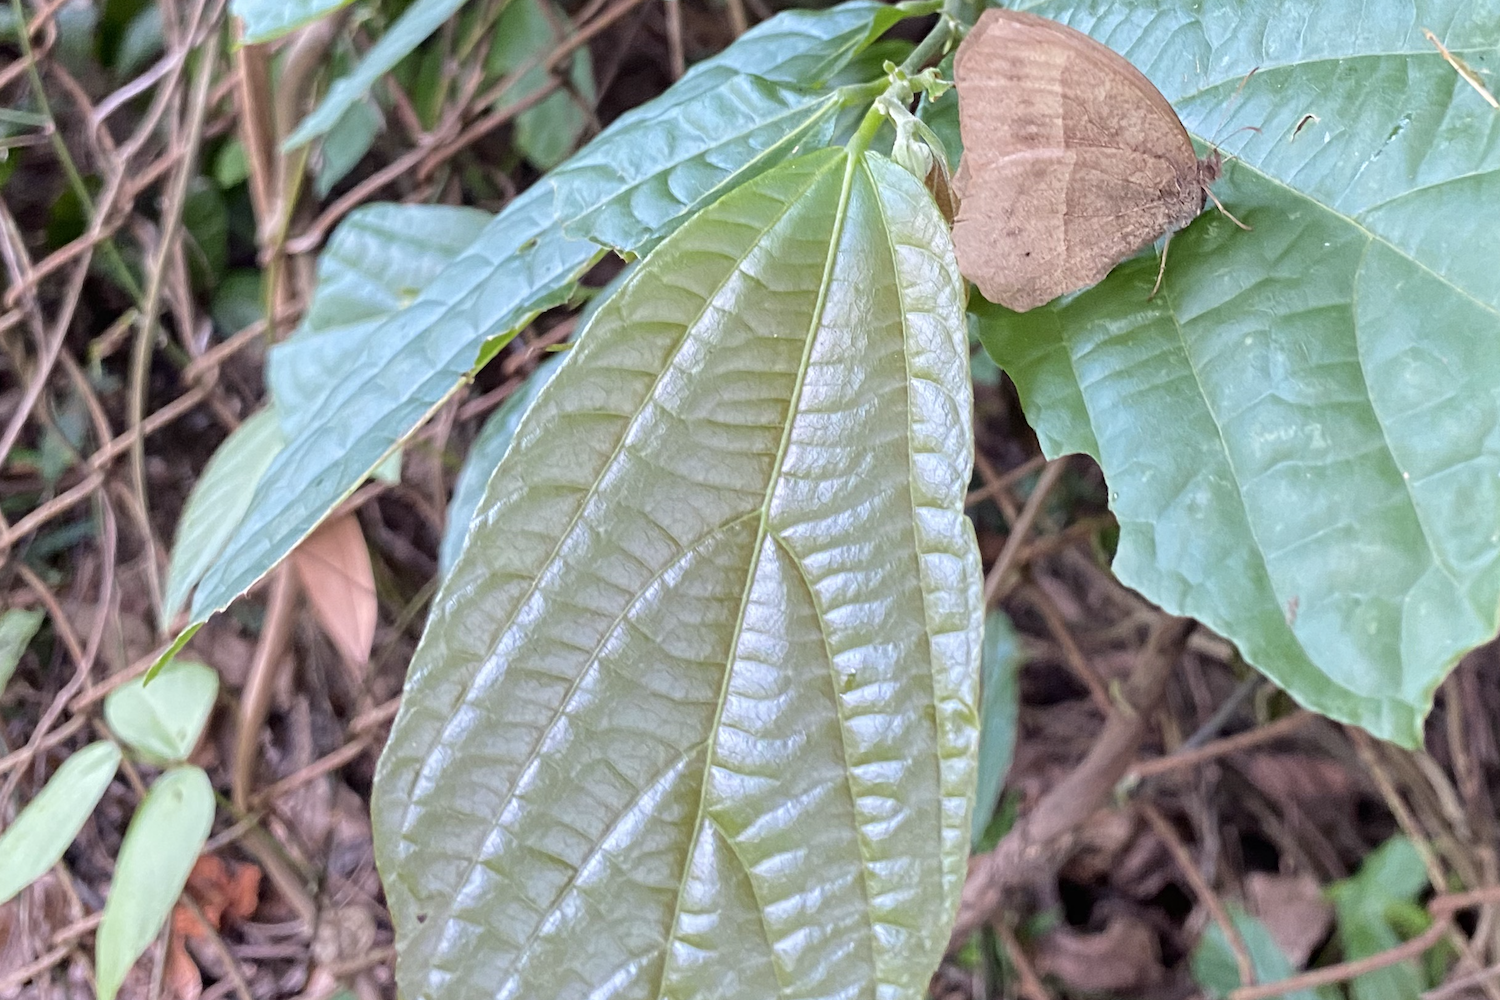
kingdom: Plantae
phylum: Tracheophyta
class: Magnoliopsida
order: Malvales
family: Malvaceae
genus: Microcos
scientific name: Microcos paniculata
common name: Microcos
